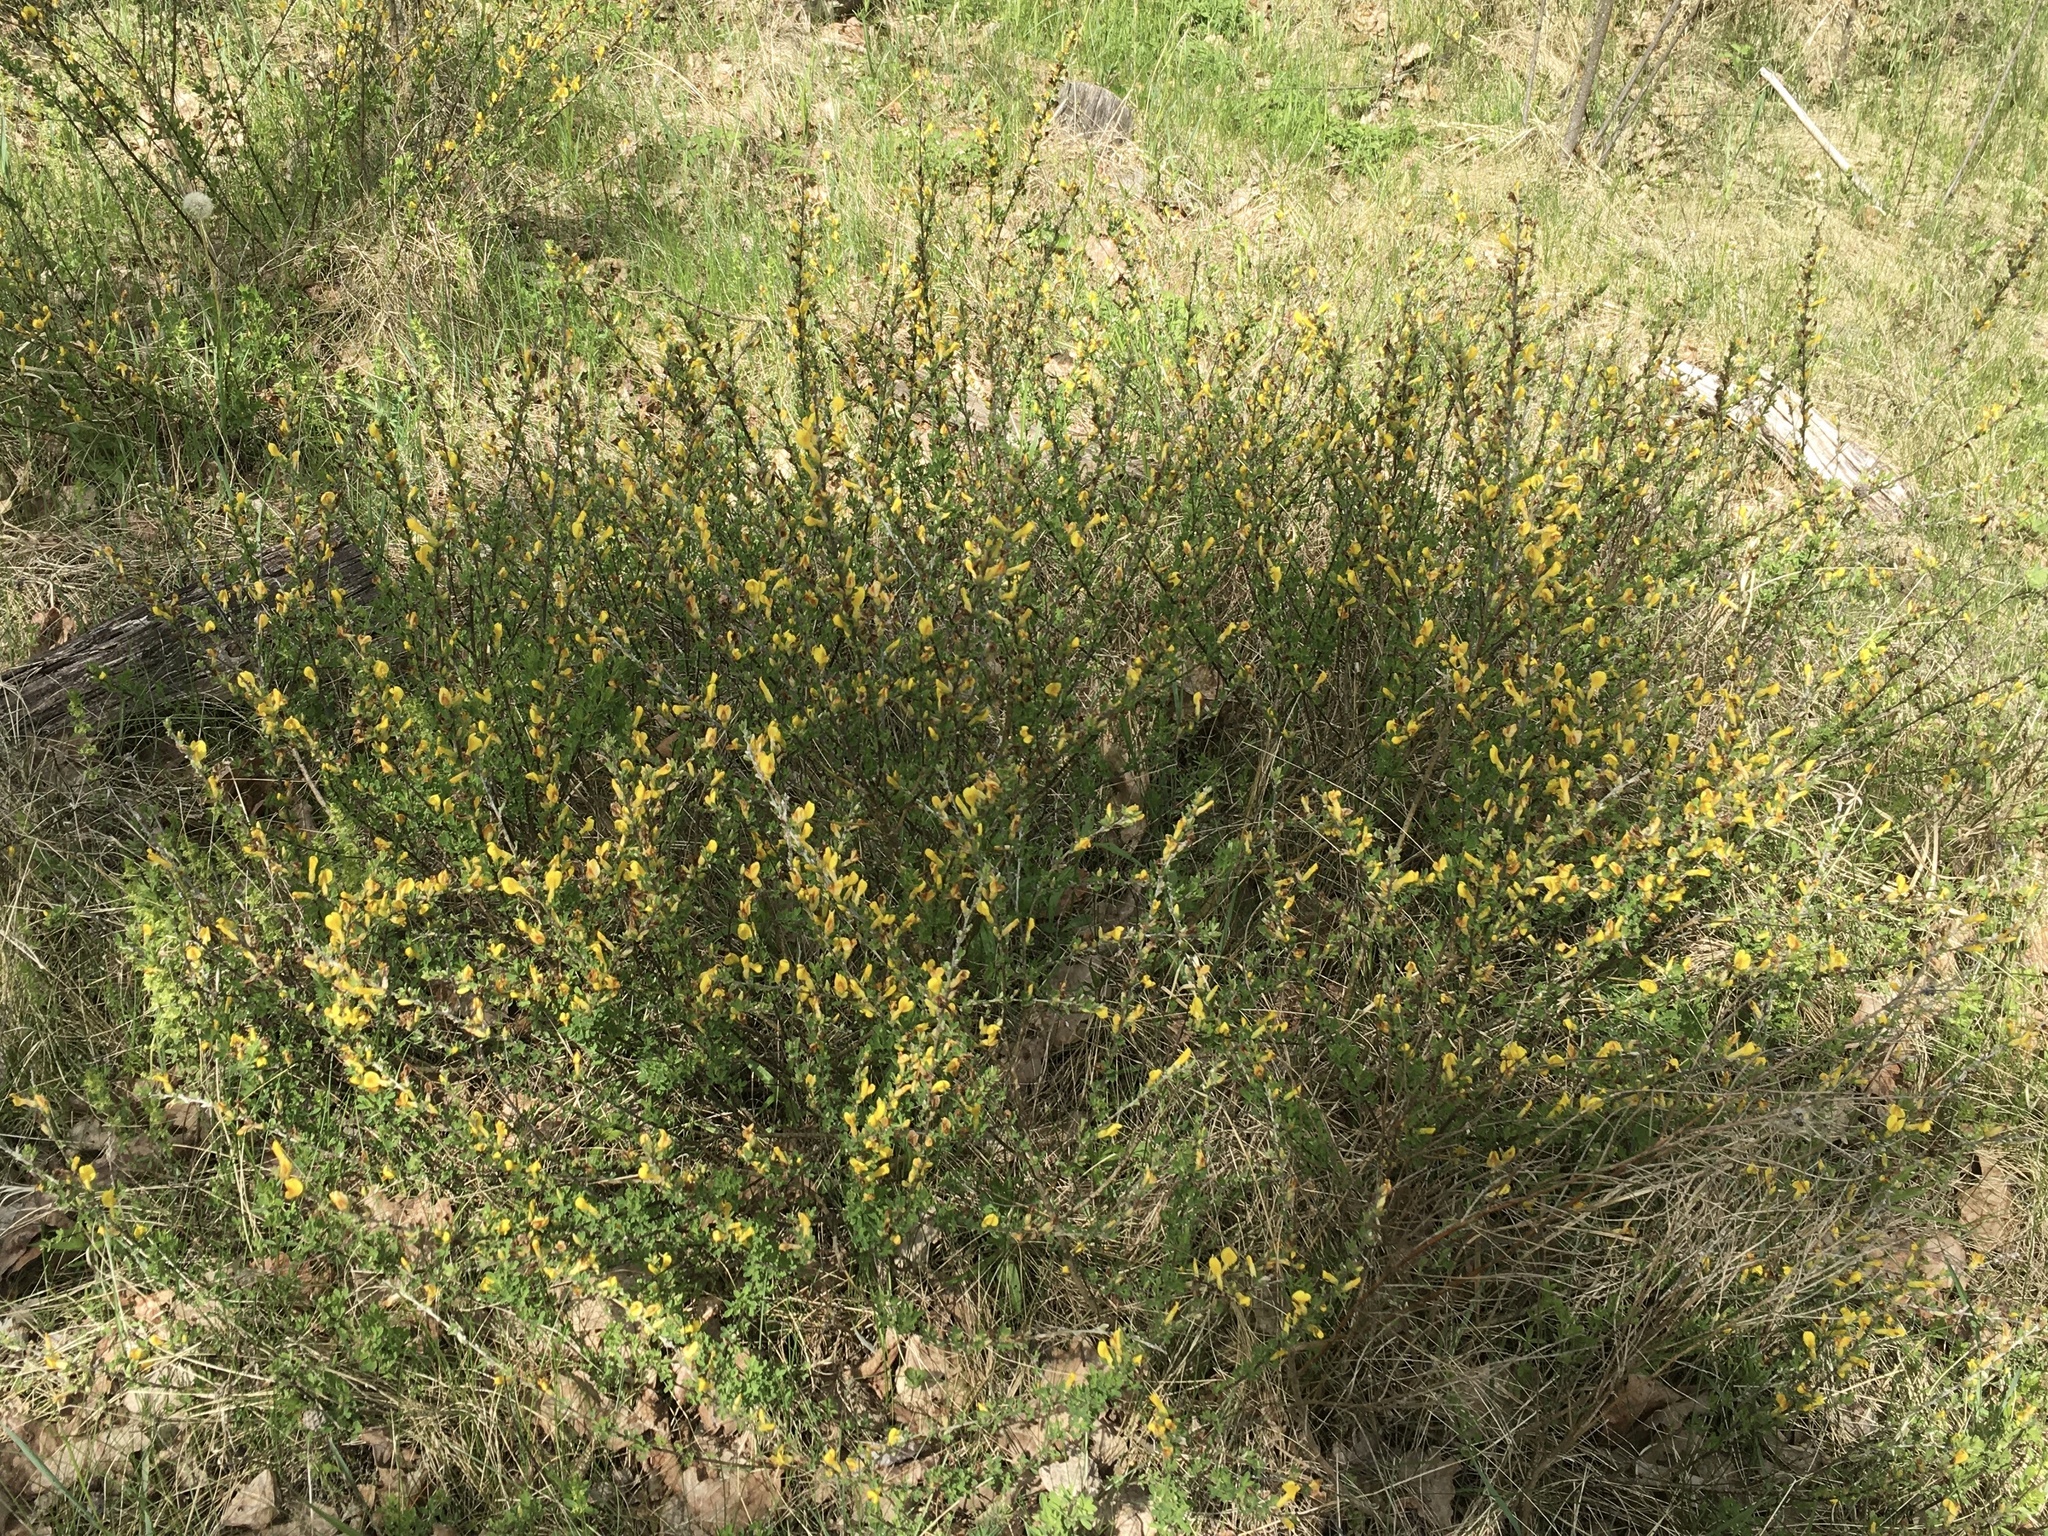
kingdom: Plantae
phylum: Tracheophyta
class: Magnoliopsida
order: Fabales
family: Fabaceae
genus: Chamaecytisus
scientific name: Chamaecytisus ruthenicus
